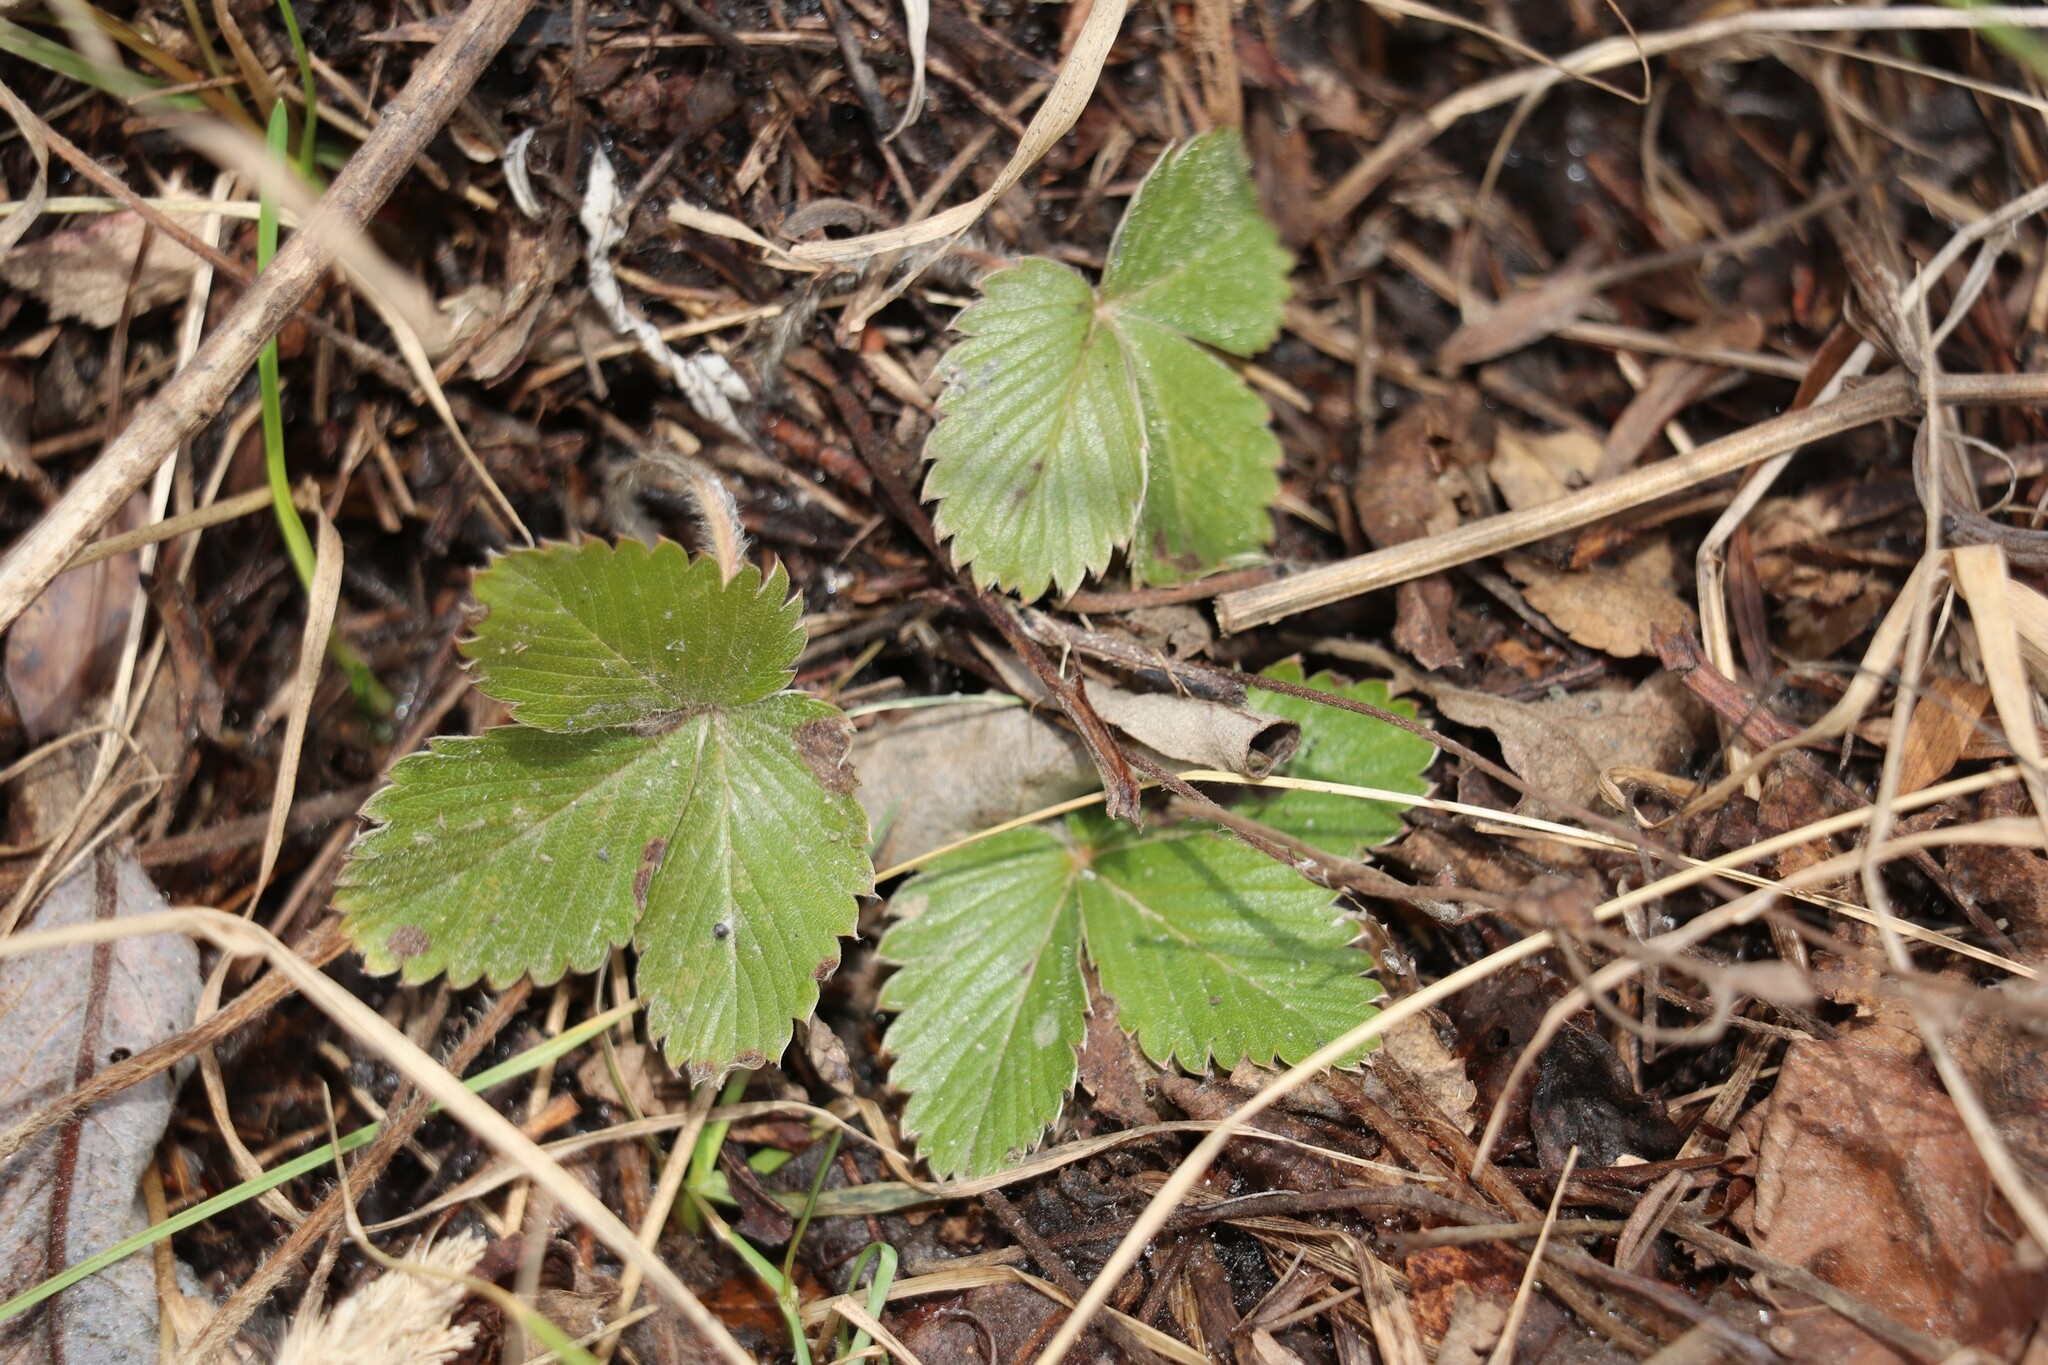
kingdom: Plantae
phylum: Tracheophyta
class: Magnoliopsida
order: Rosales
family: Rosaceae
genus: Fragaria
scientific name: Fragaria vesca
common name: Wild strawberry
